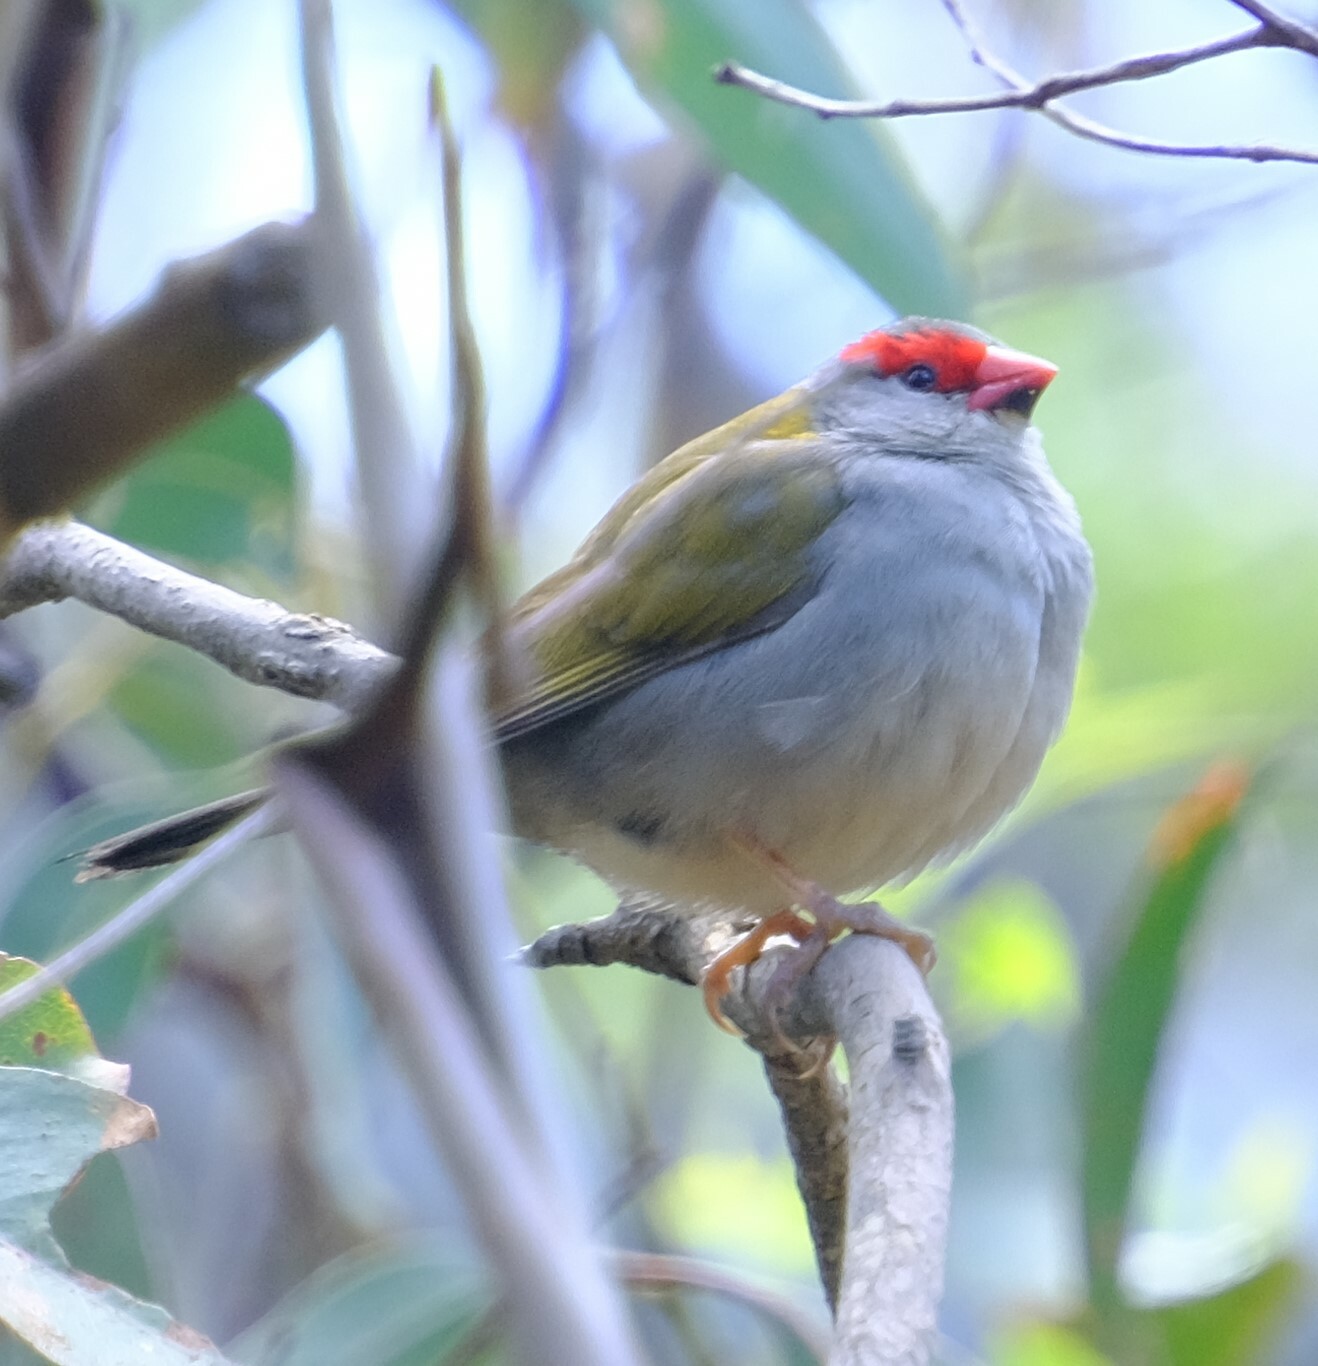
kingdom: Animalia
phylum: Chordata
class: Aves
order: Passeriformes
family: Estrildidae
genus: Neochmia
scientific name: Neochmia temporalis
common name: Red-browed finch
